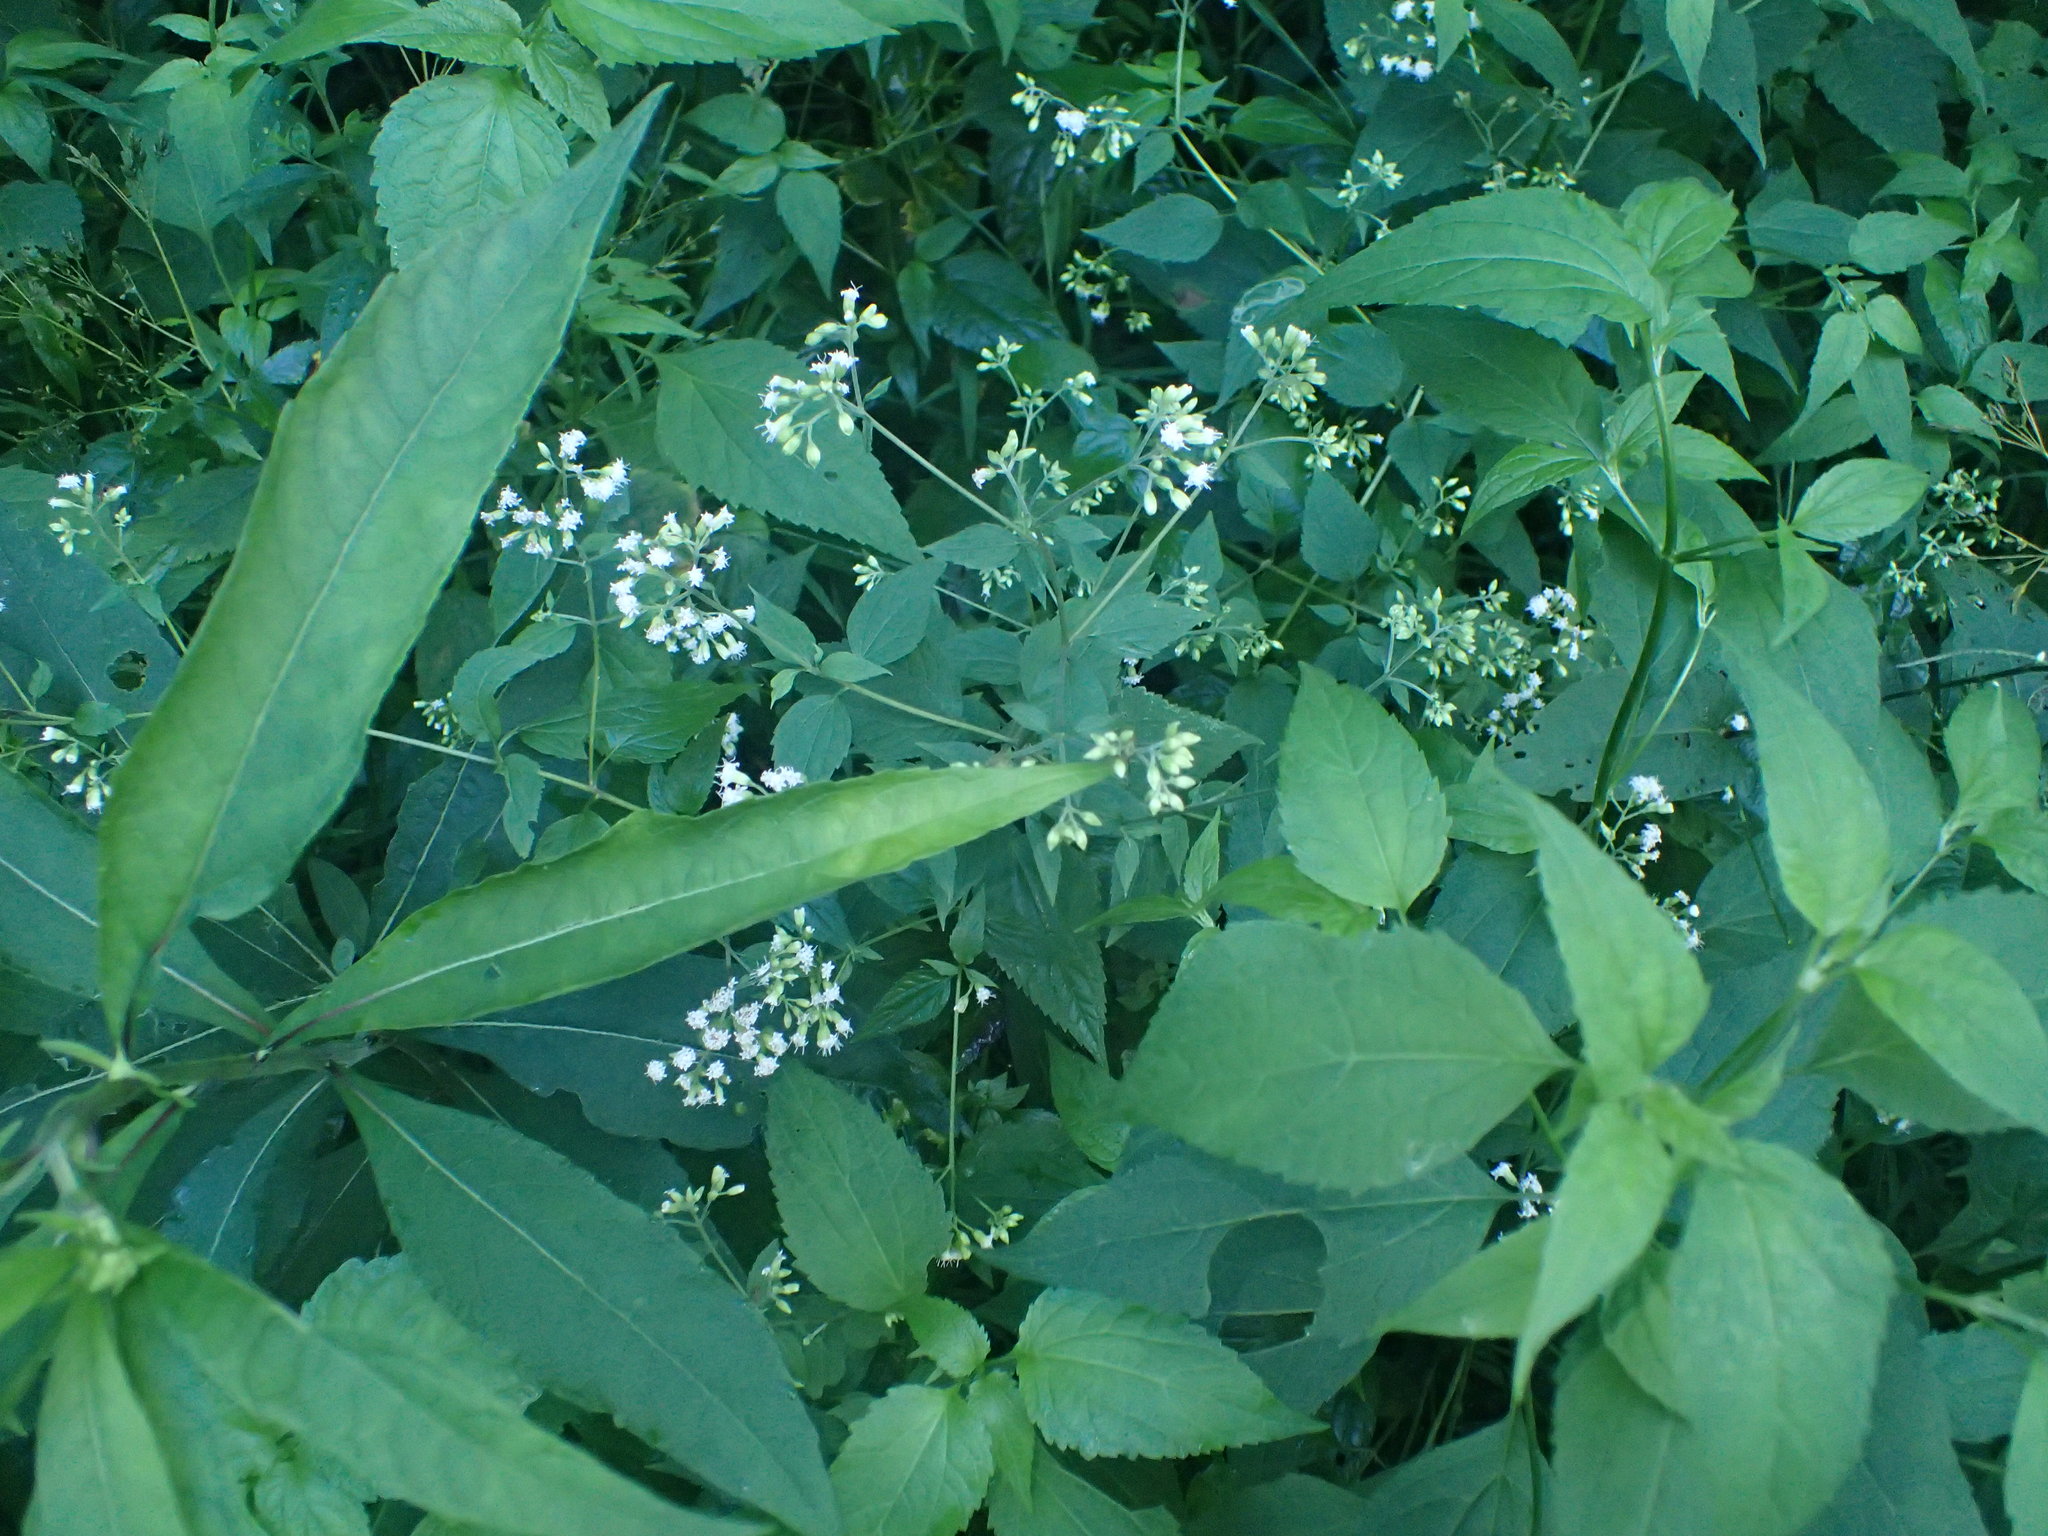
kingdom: Plantae
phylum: Tracheophyta
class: Magnoliopsida
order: Asterales
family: Asteraceae
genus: Ageratina
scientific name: Ageratina altissima
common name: White snakeroot
